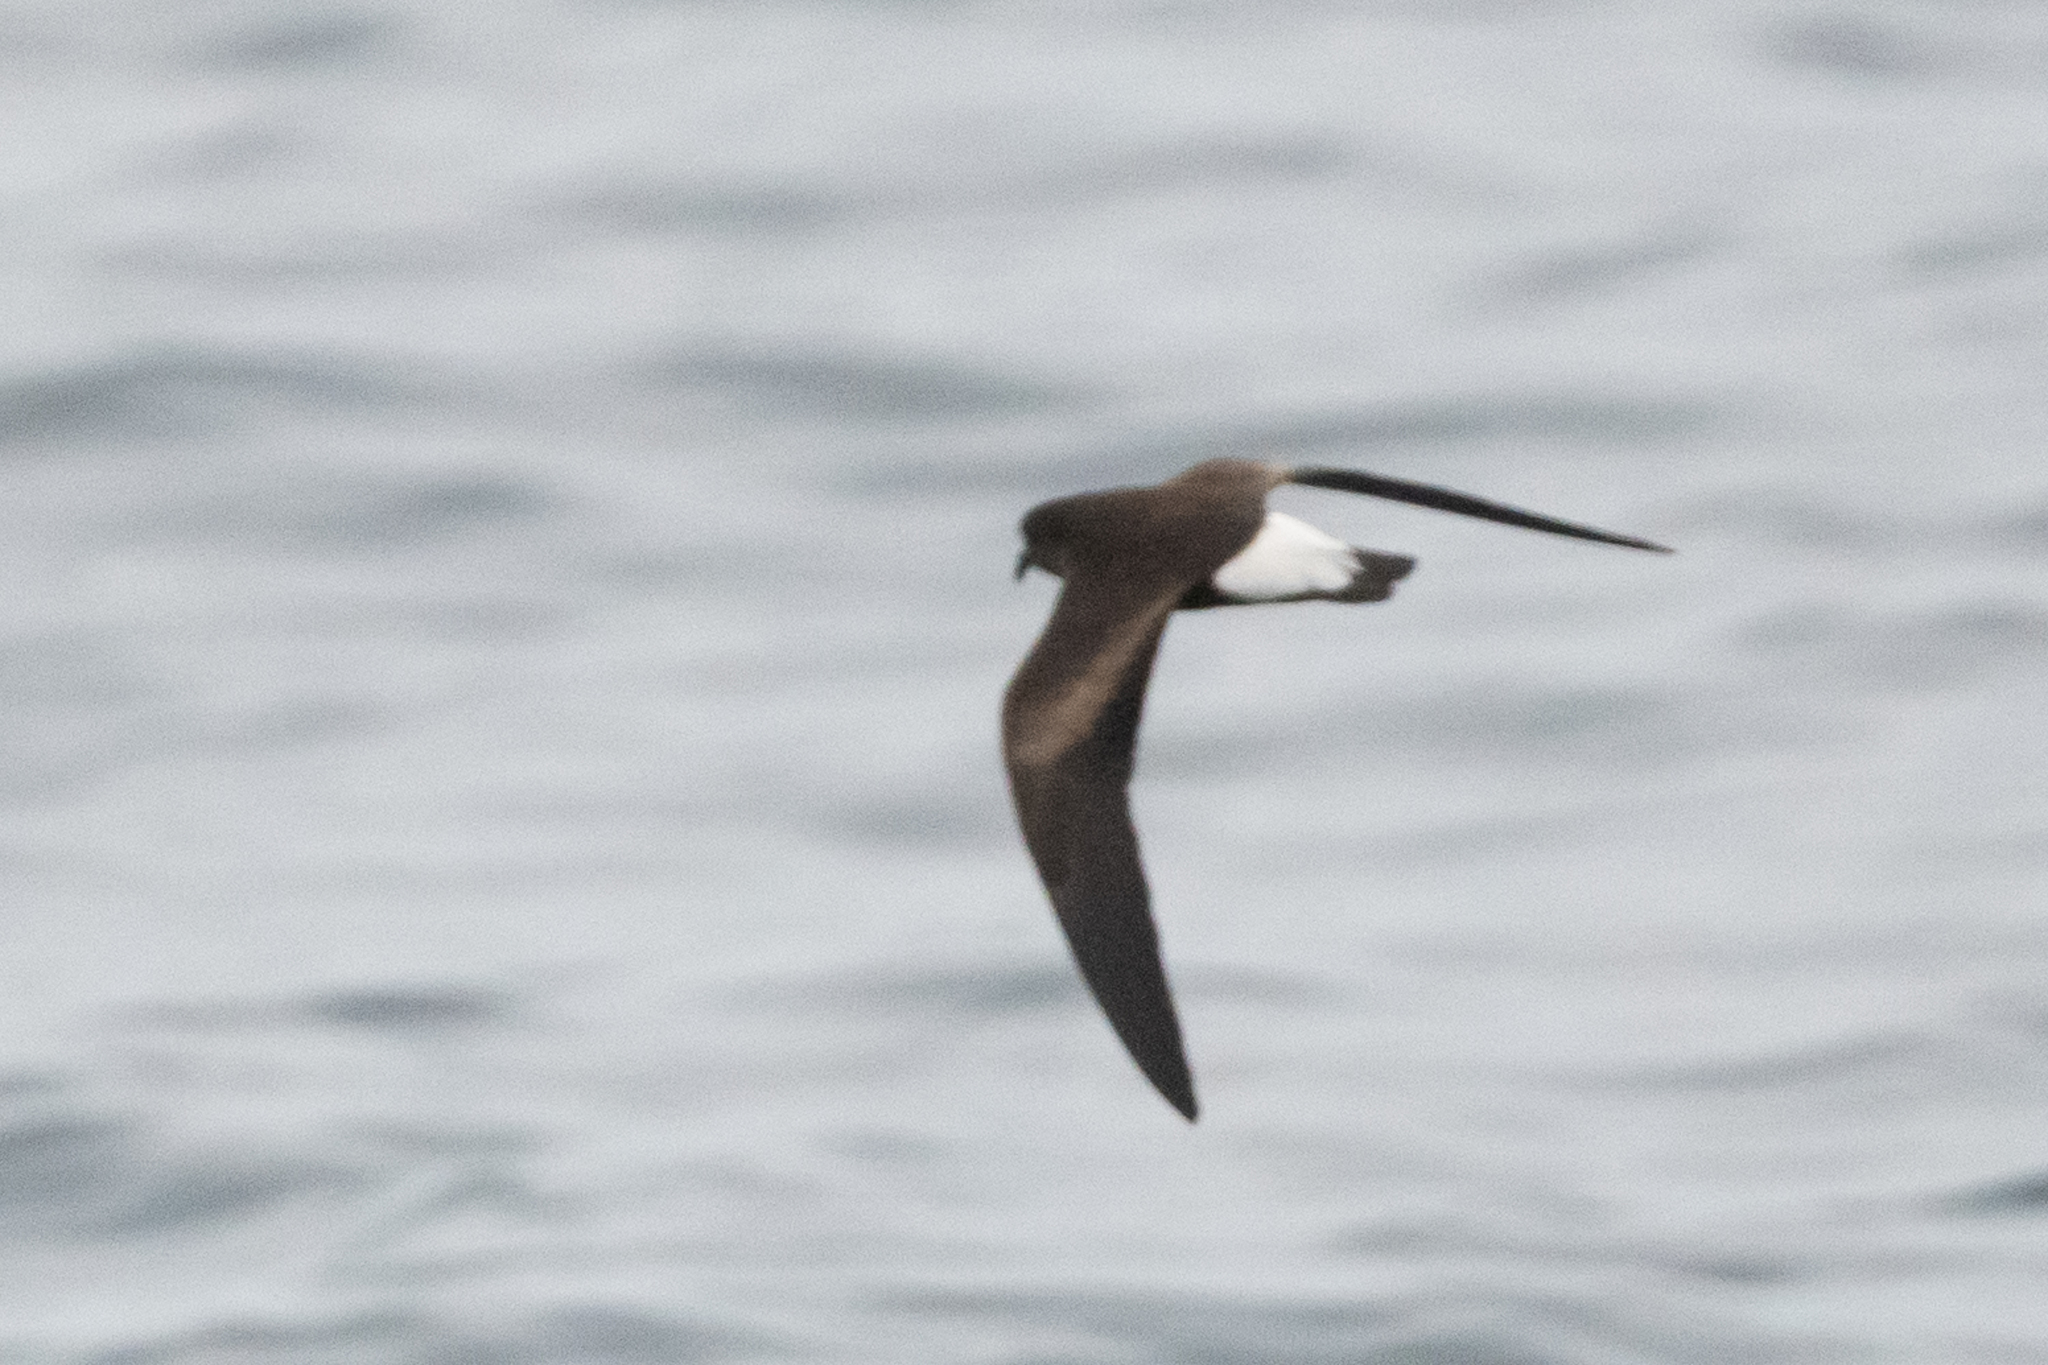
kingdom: Animalia
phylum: Chordata
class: Aves
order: Procellariiformes
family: Hydrobatidae
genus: Oceanodroma
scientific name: Oceanodroma tethys
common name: Wedge-rumped storm-petrel
